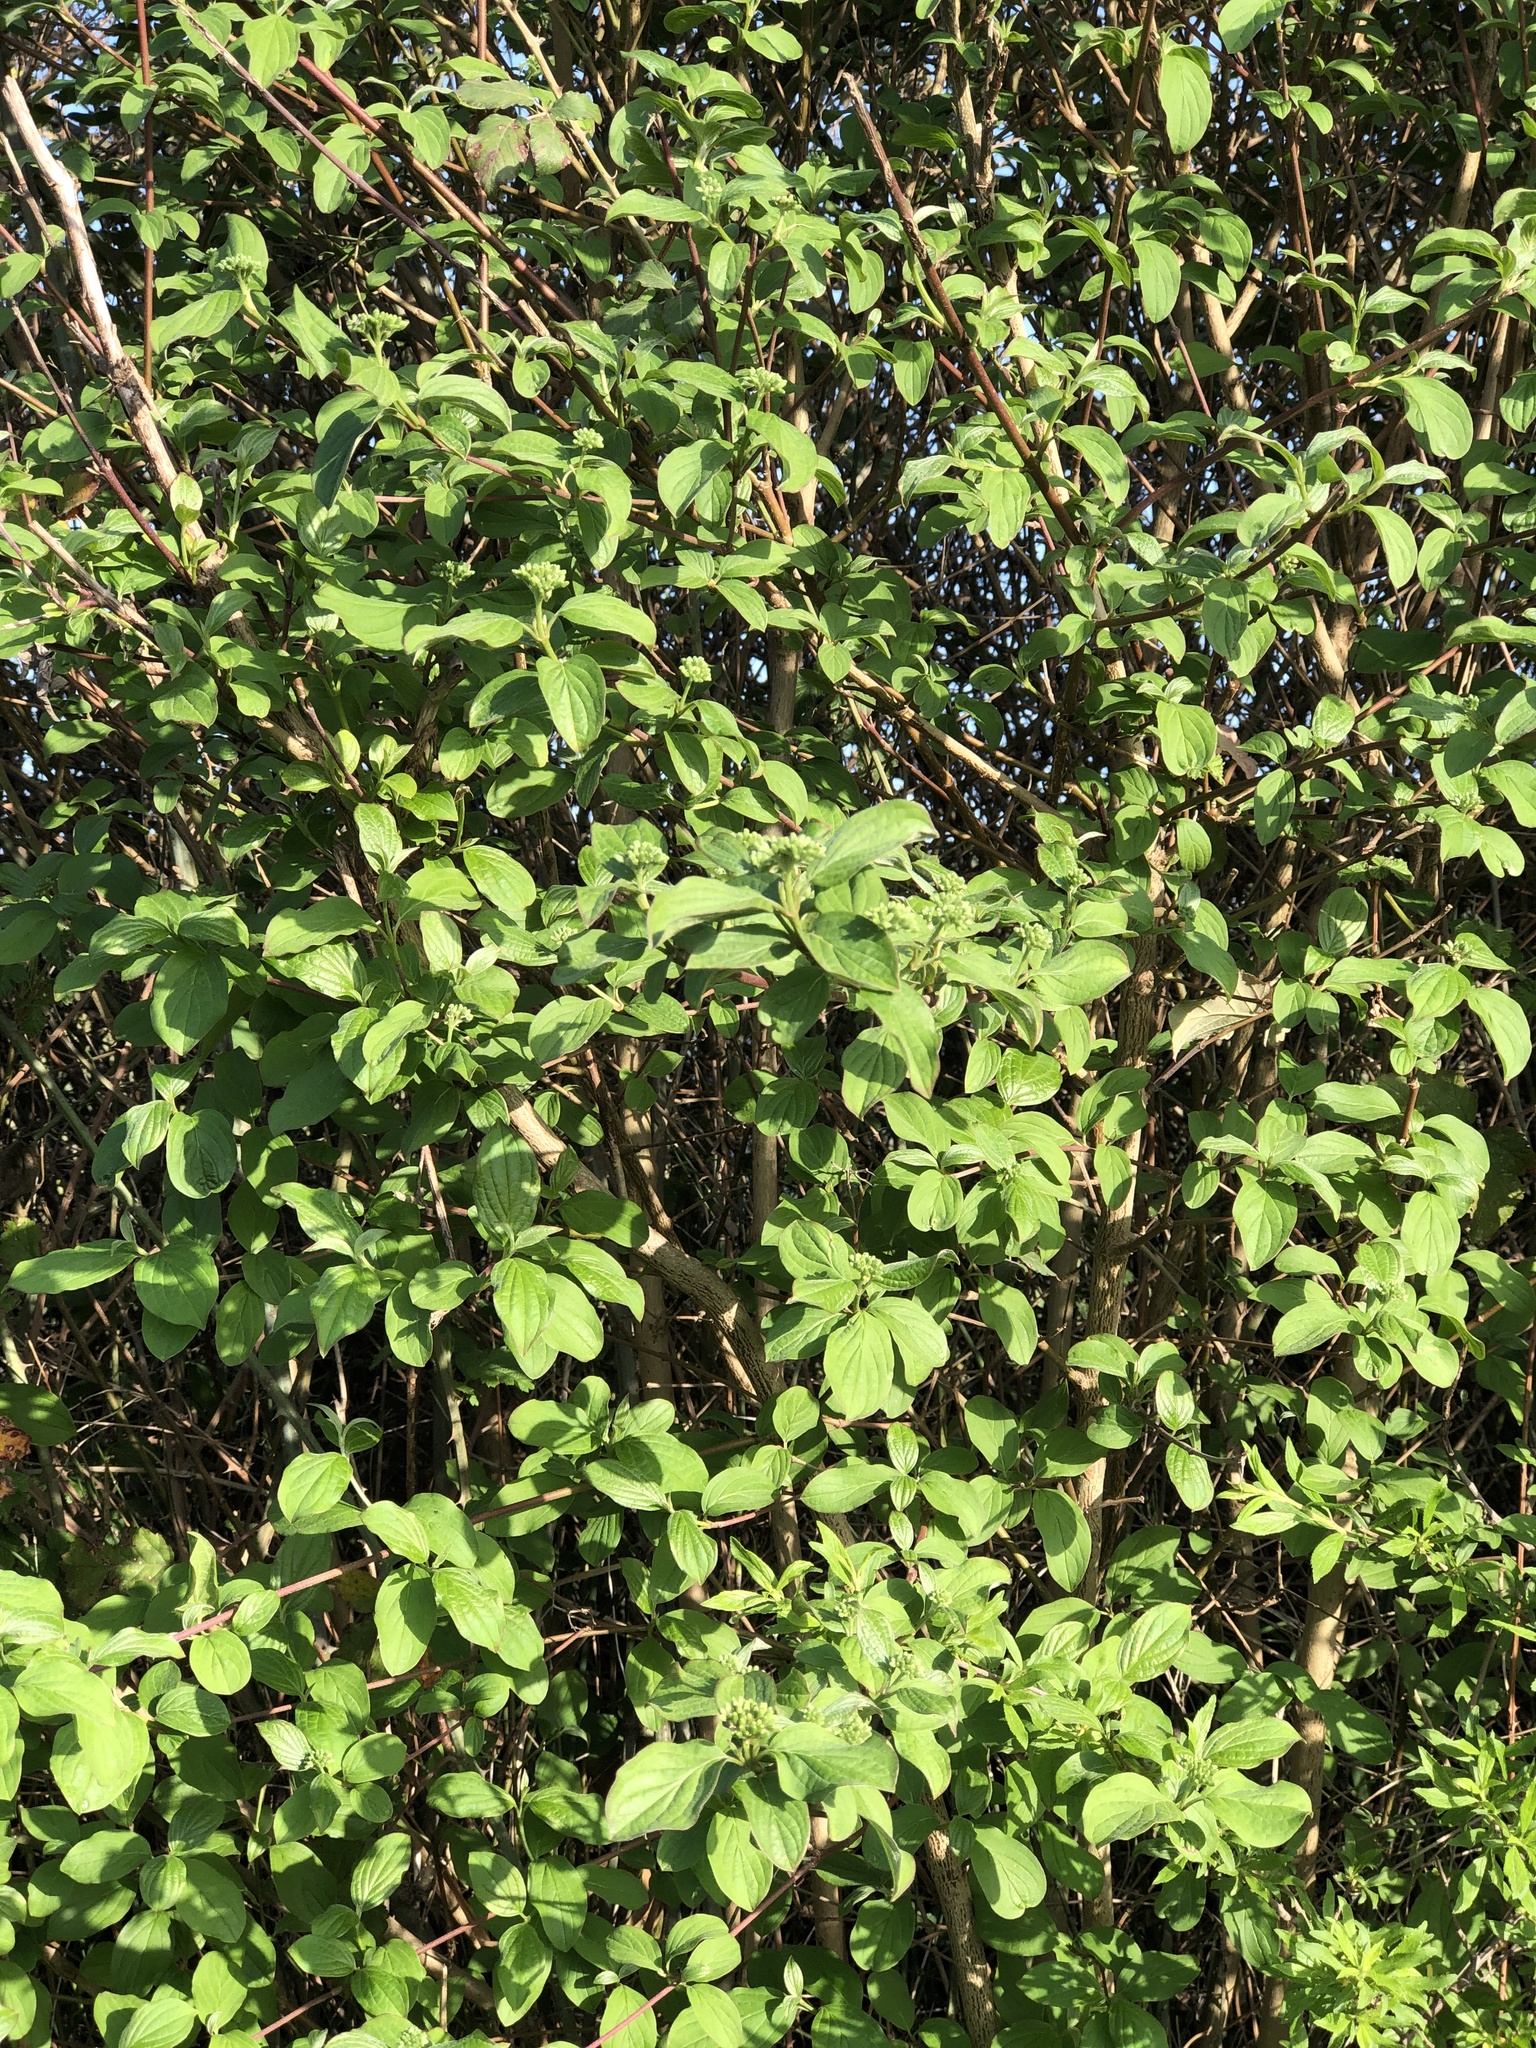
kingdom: Plantae
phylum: Tracheophyta
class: Magnoliopsida
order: Cornales
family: Cornaceae
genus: Cornus
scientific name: Cornus sanguinea
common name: Dogwood
